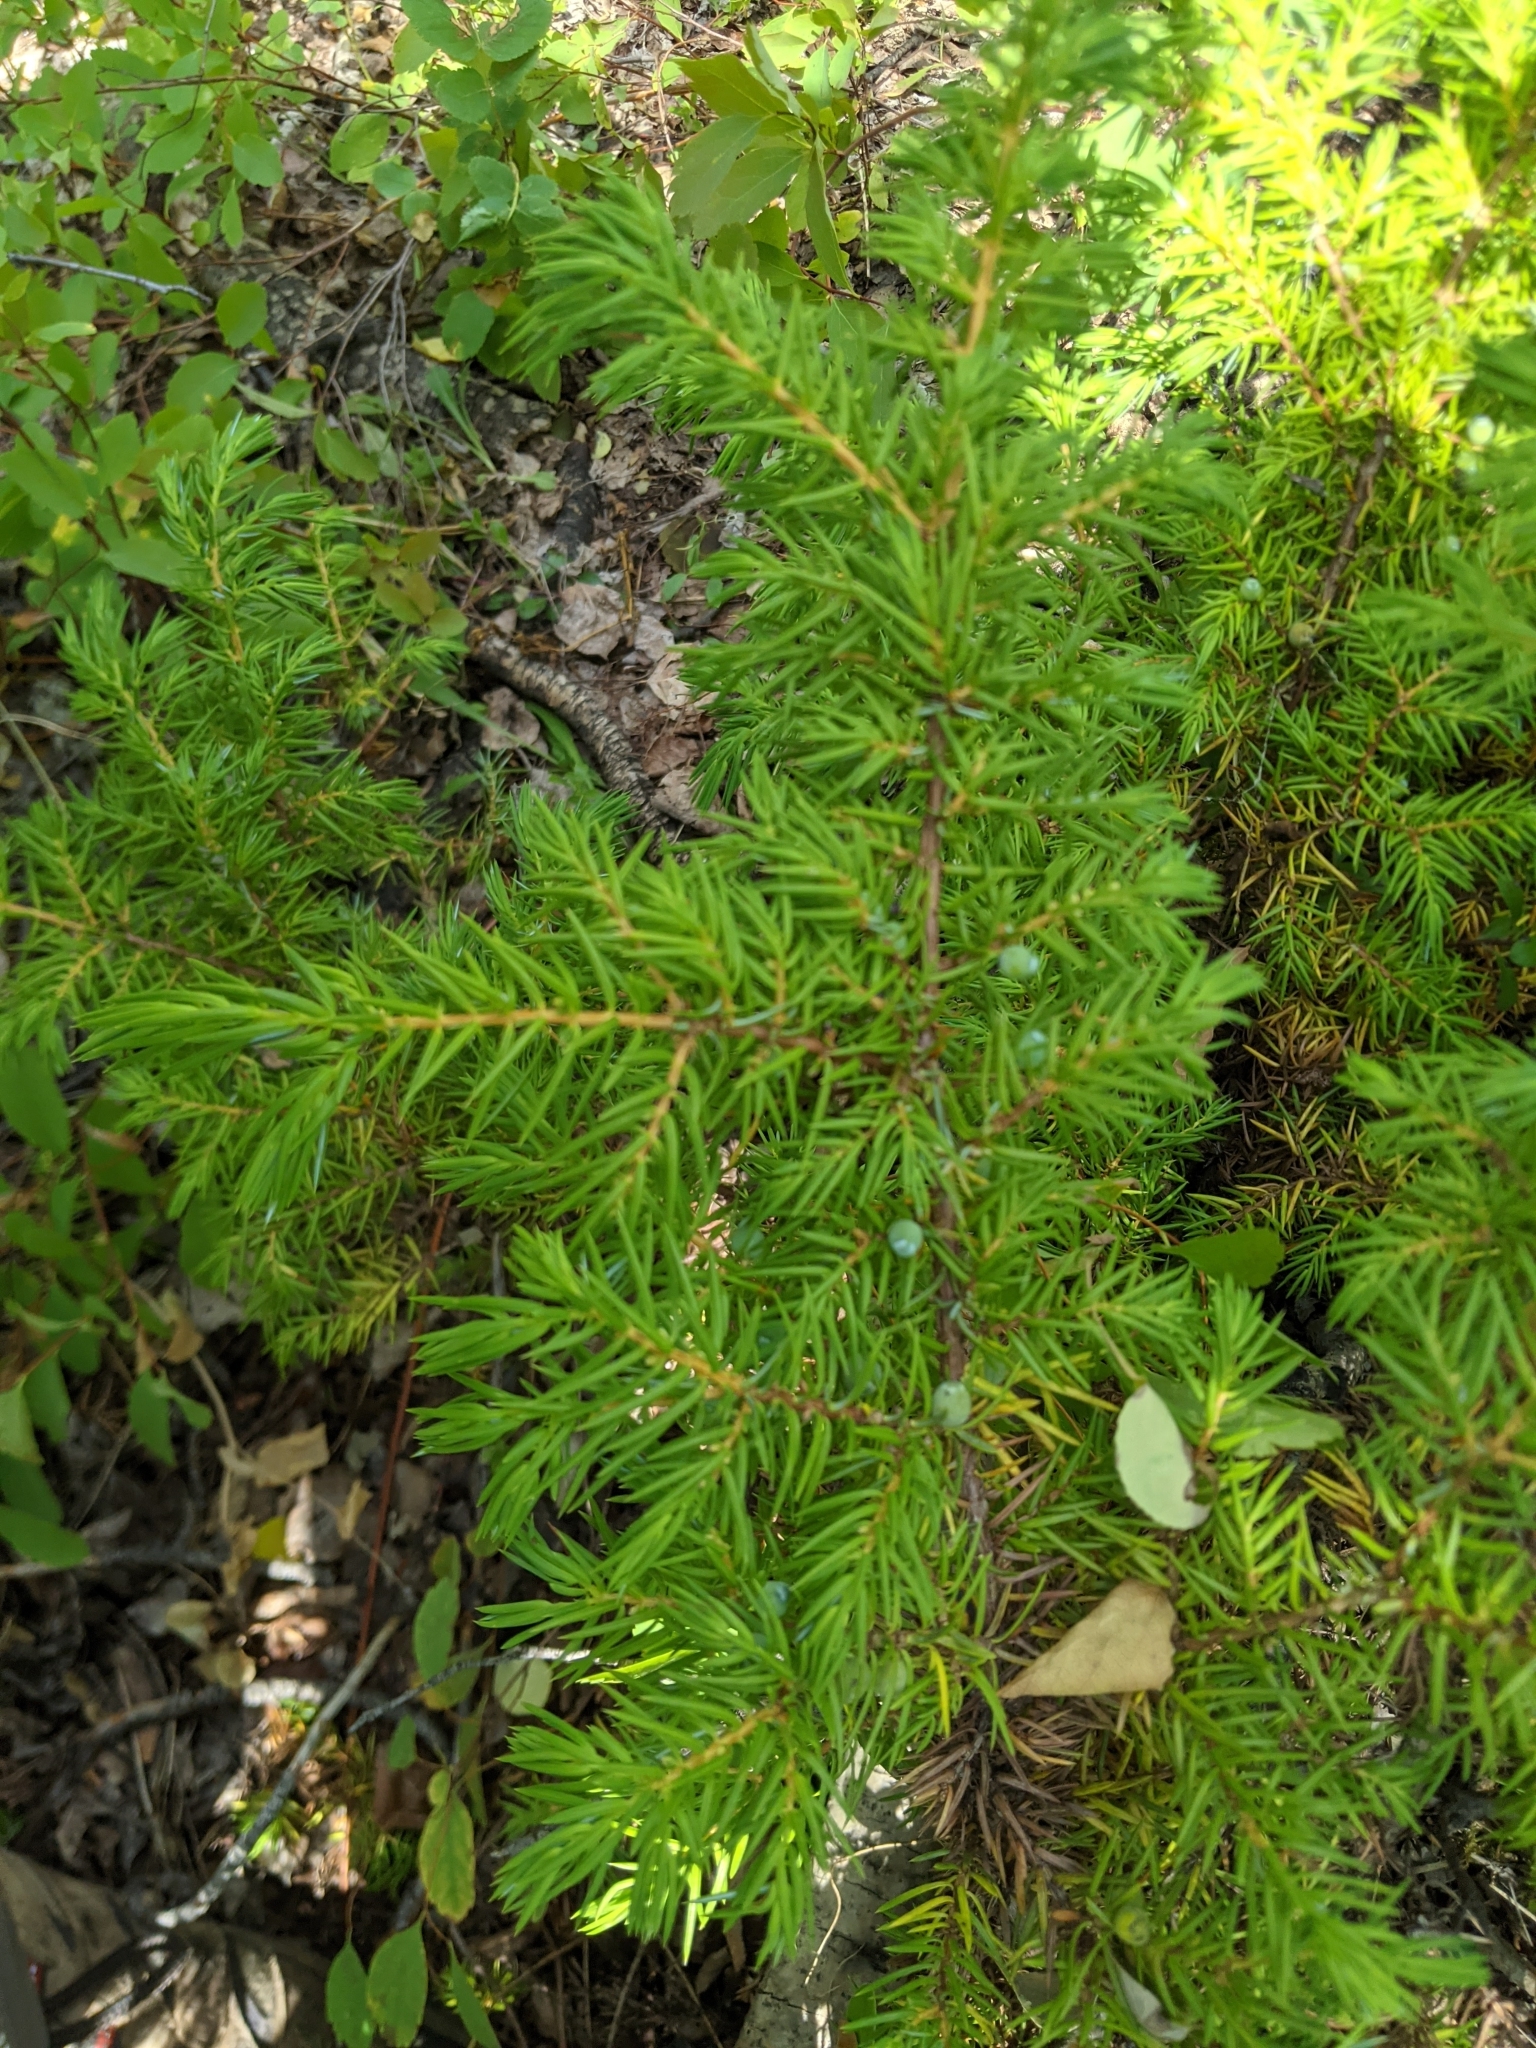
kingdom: Plantae
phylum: Tracheophyta
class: Pinopsida
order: Pinales
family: Cupressaceae
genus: Juniperus
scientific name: Juniperus communis
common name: Common juniper
